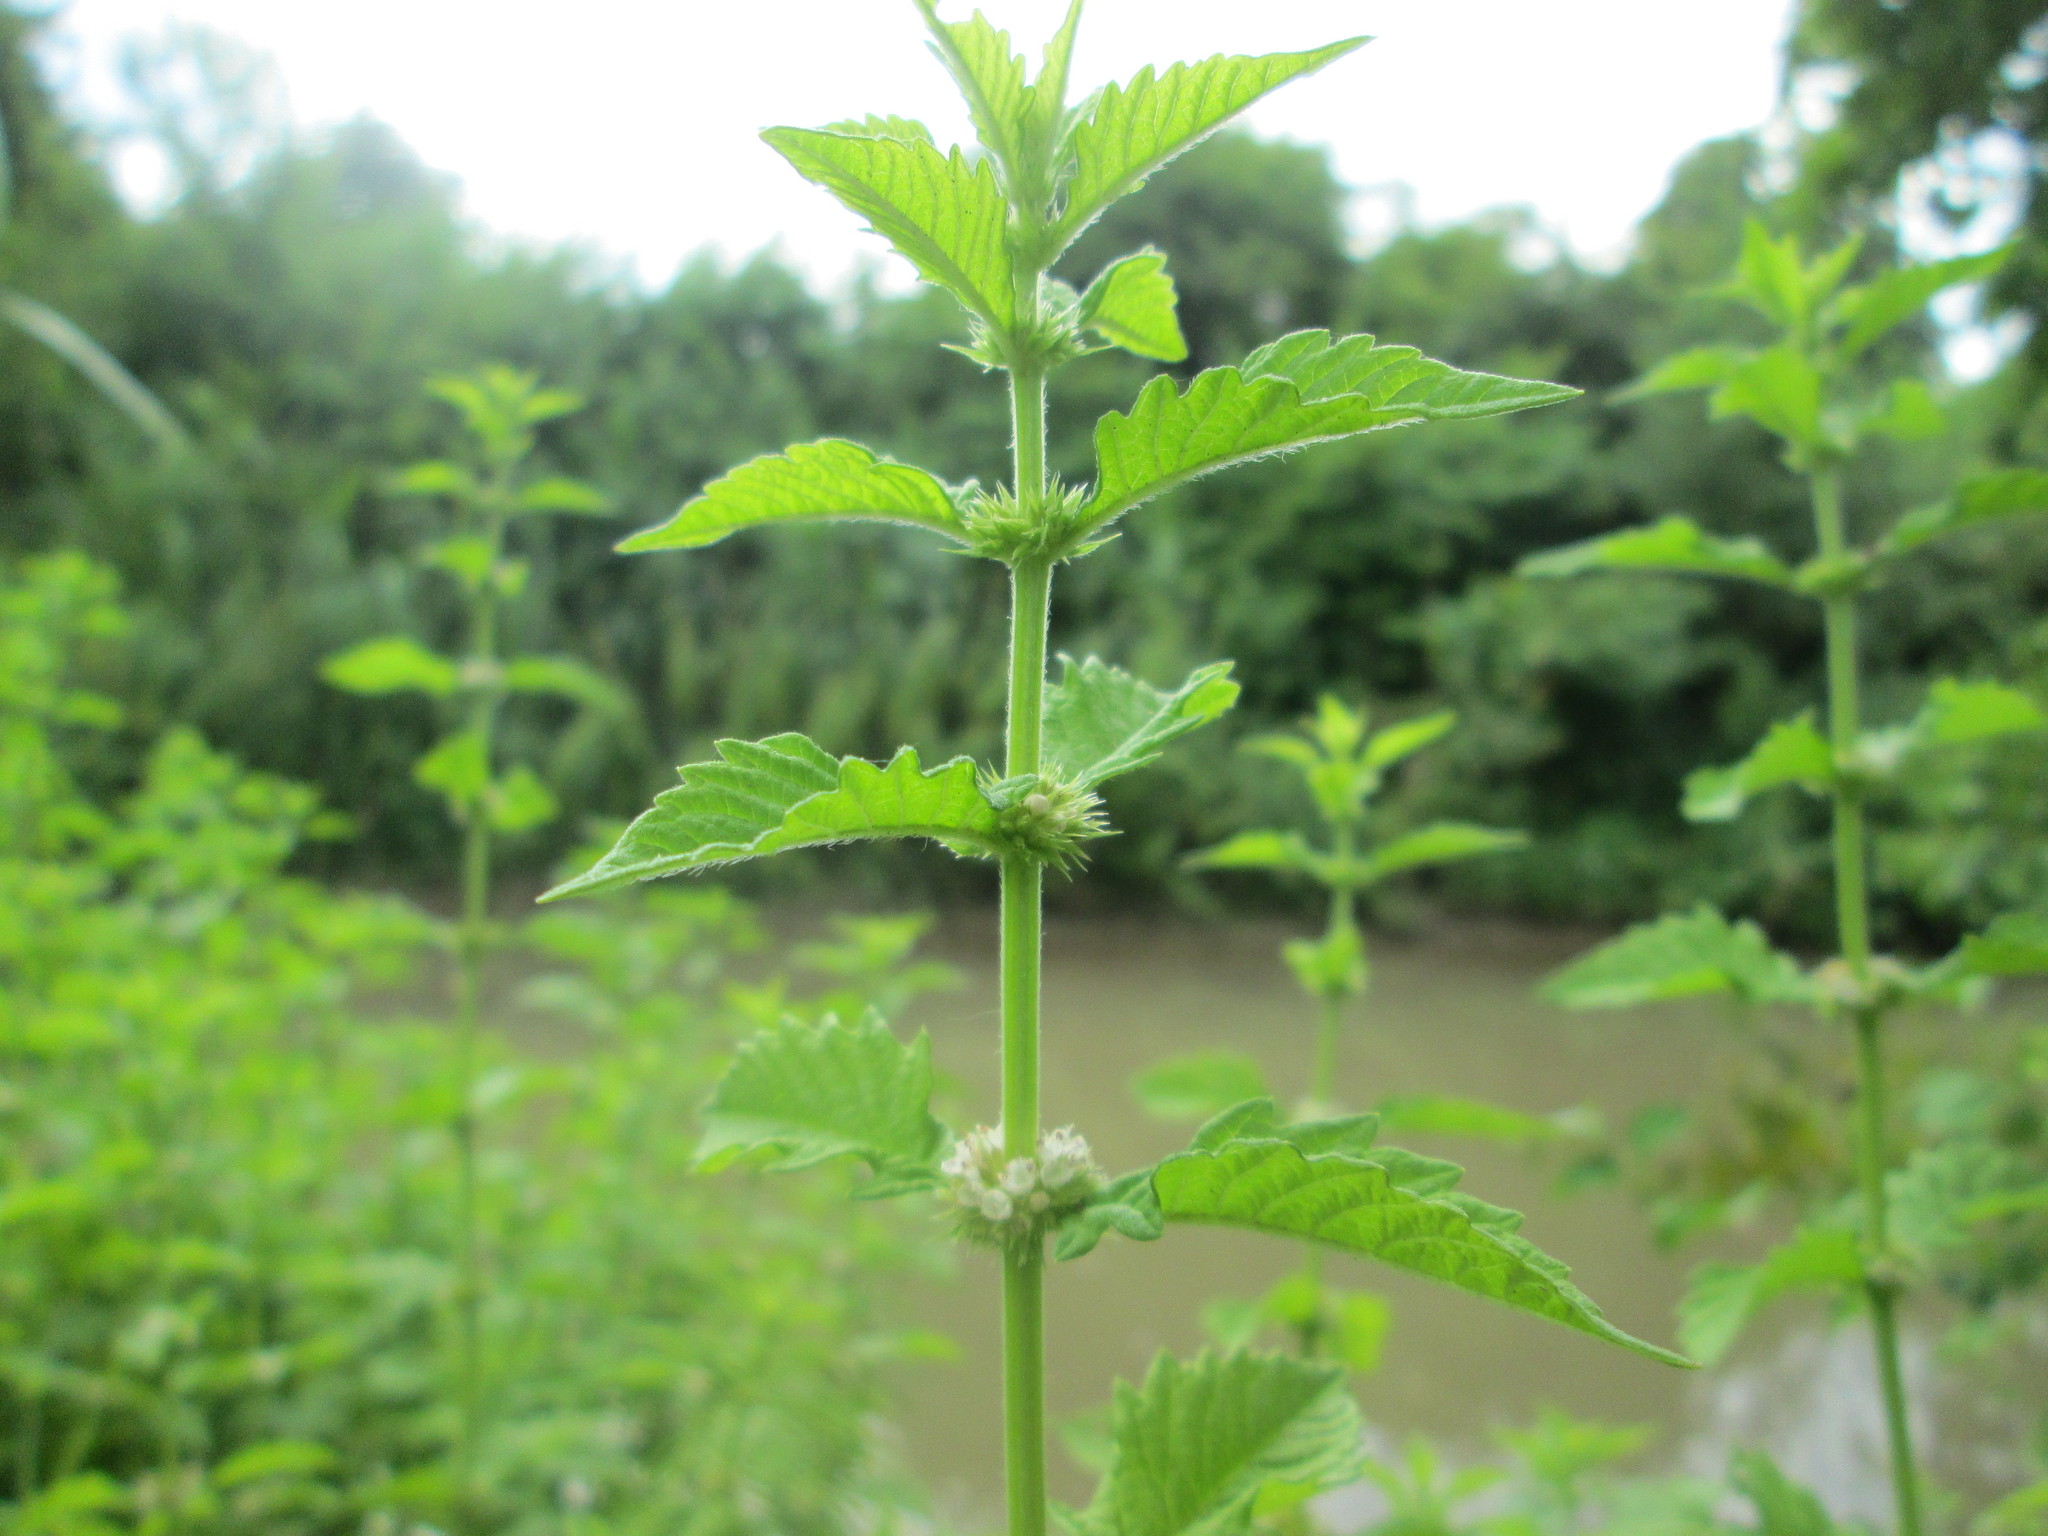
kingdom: Plantae
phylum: Tracheophyta
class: Magnoliopsida
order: Lamiales
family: Lamiaceae
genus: Lycopus
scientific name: Lycopus europaeus
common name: European bugleweed
